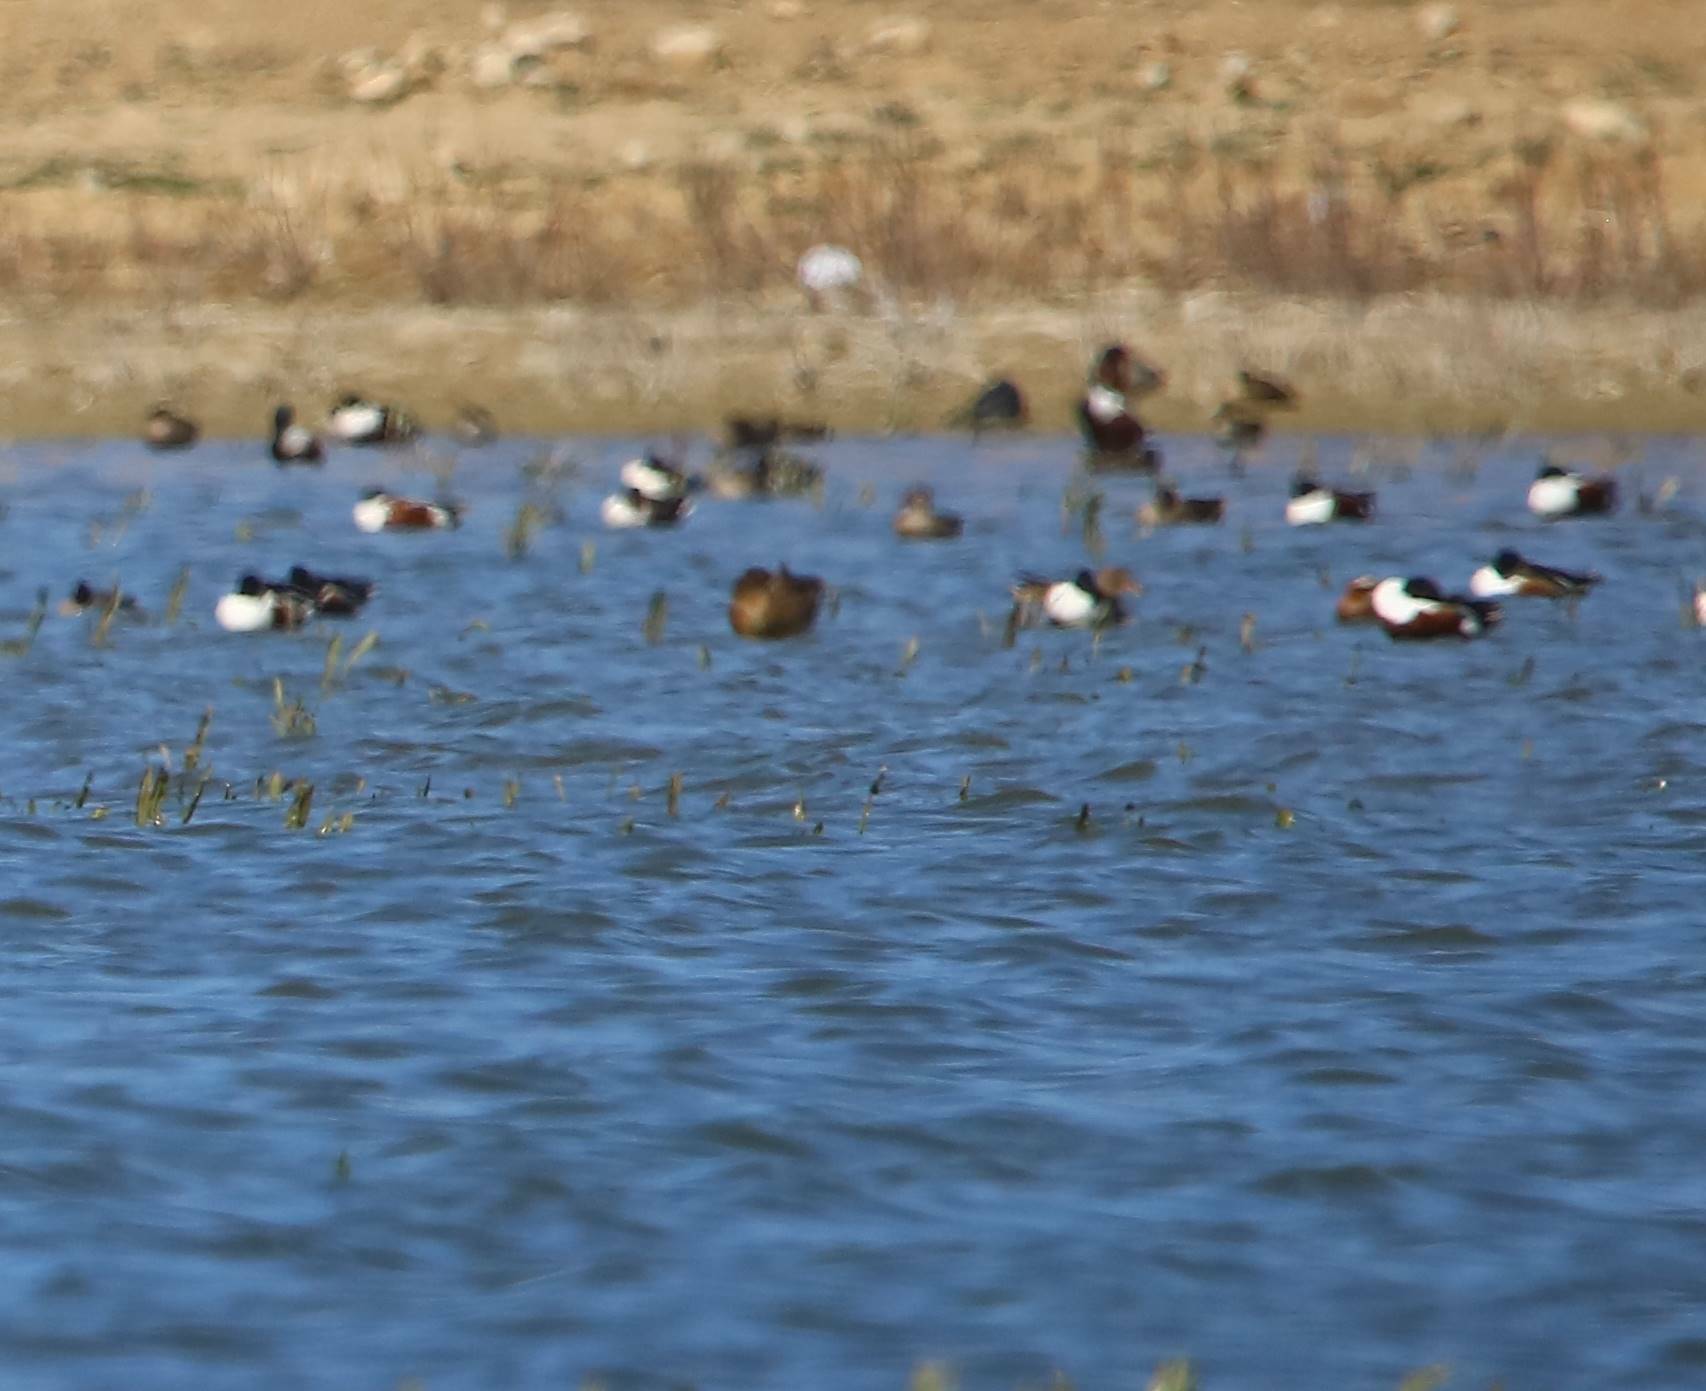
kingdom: Animalia
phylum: Chordata
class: Aves
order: Anseriformes
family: Anatidae
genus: Spatula
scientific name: Spatula clypeata
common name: Northern shoveler
